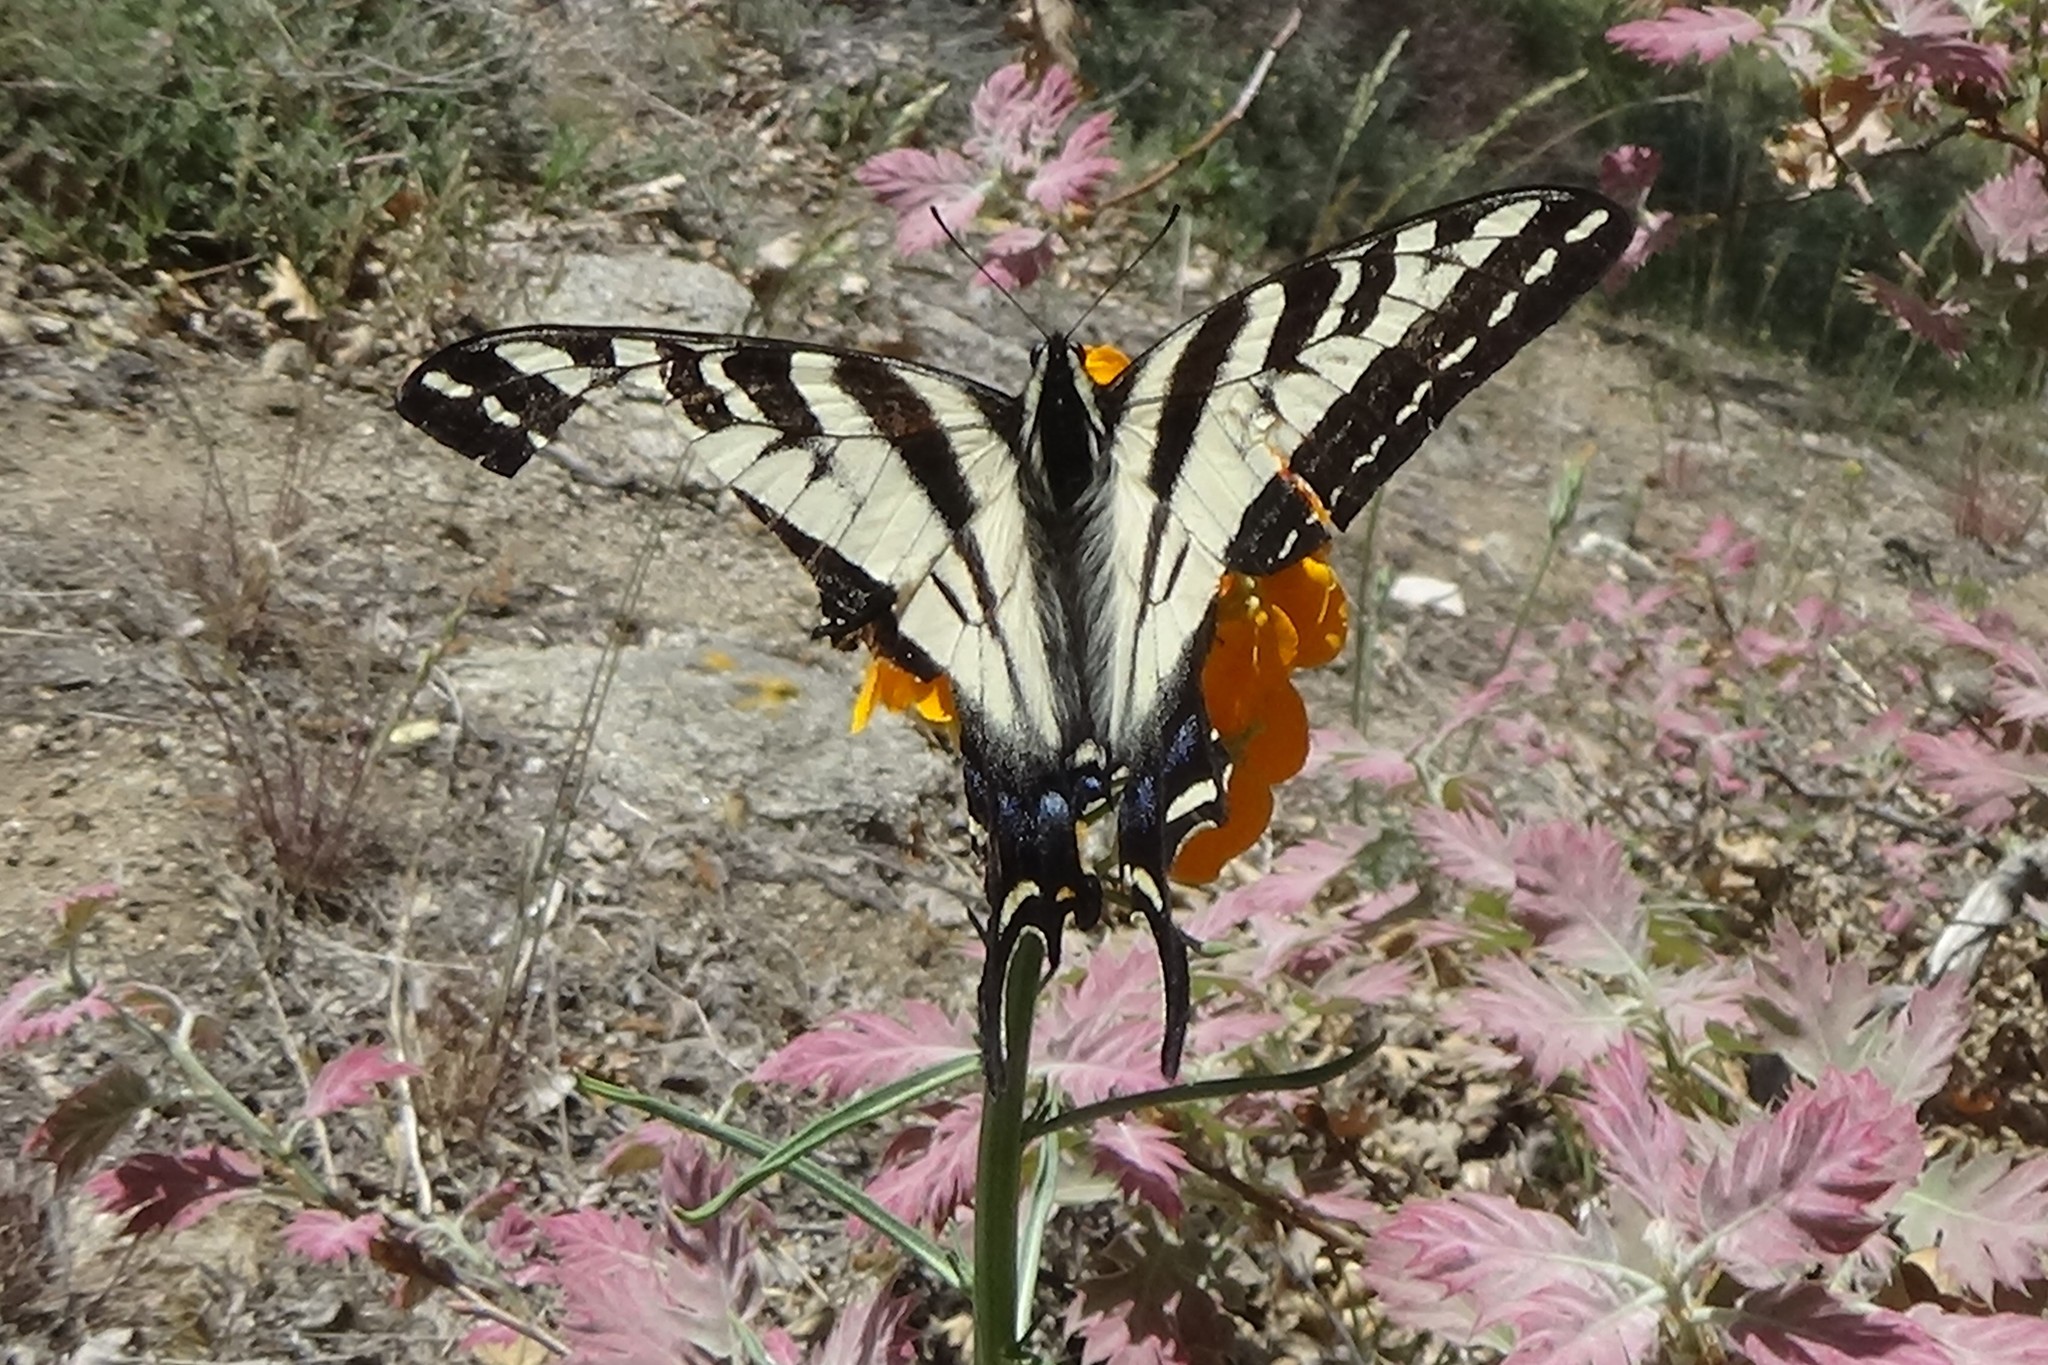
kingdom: Animalia
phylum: Arthropoda
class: Insecta
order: Lepidoptera
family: Papilionidae
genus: Papilio
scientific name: Papilio eurymedon
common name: Pale tiger swallowtail
